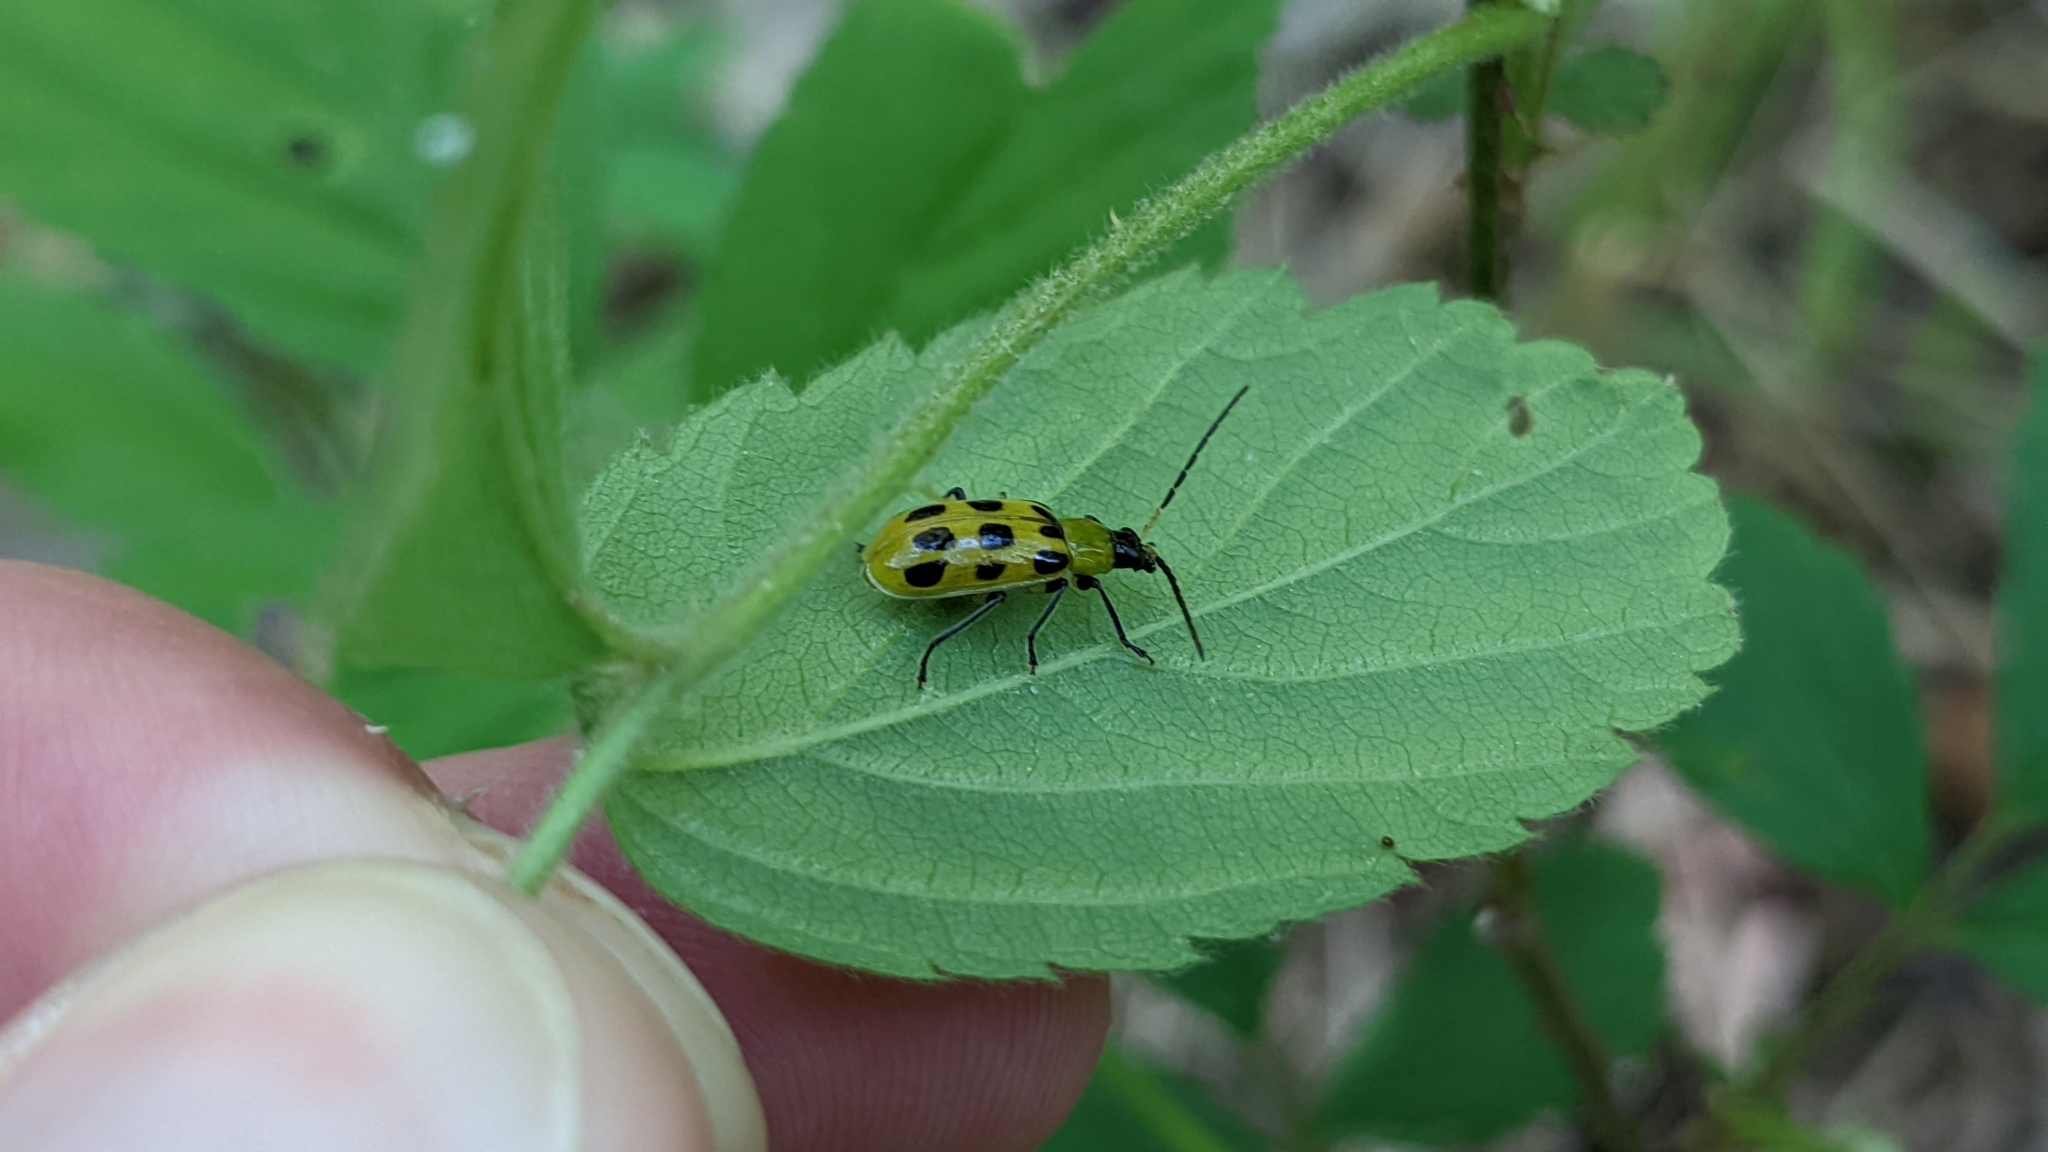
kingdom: Animalia
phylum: Arthropoda
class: Insecta
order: Coleoptera
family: Chrysomelidae
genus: Diabrotica
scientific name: Diabrotica undecimpunctata
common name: Spotted cucumber beetle
